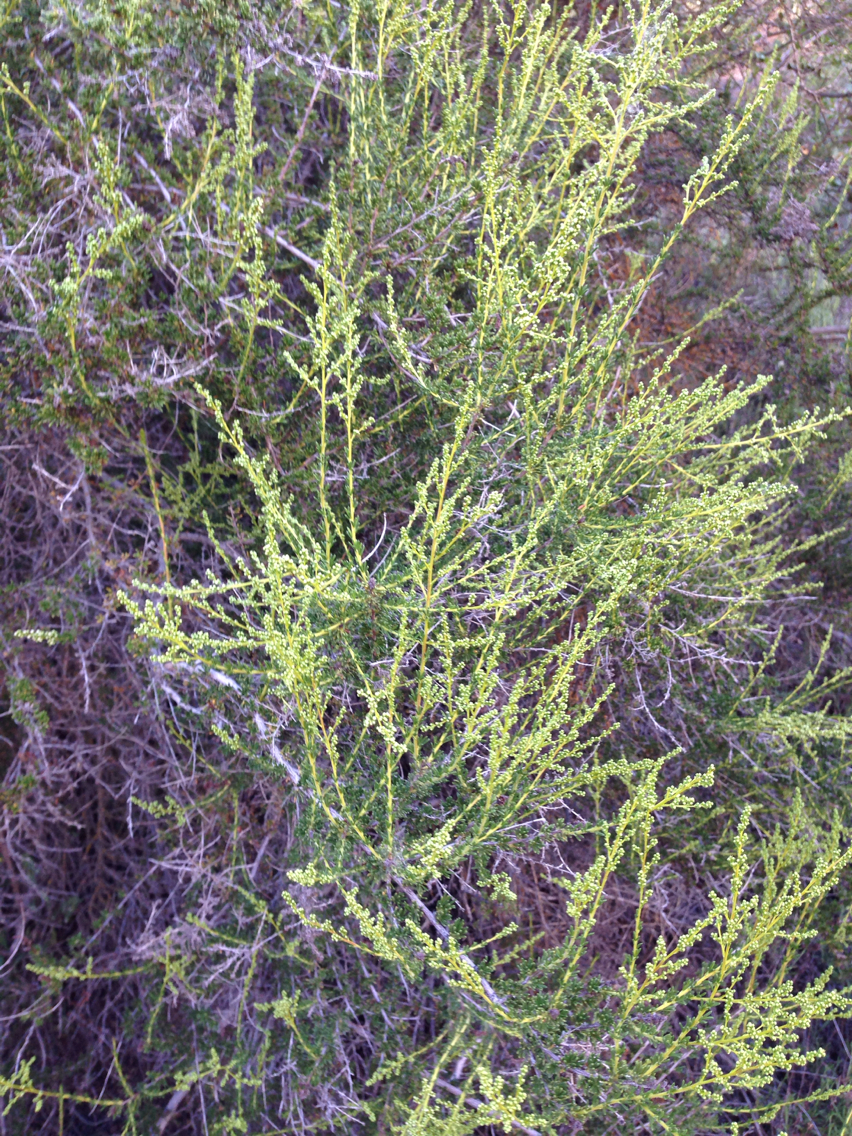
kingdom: Plantae
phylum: Tracheophyta
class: Magnoliopsida
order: Rosales
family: Rosaceae
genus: Adenostoma
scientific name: Adenostoma fasciculatum
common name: Chamise
